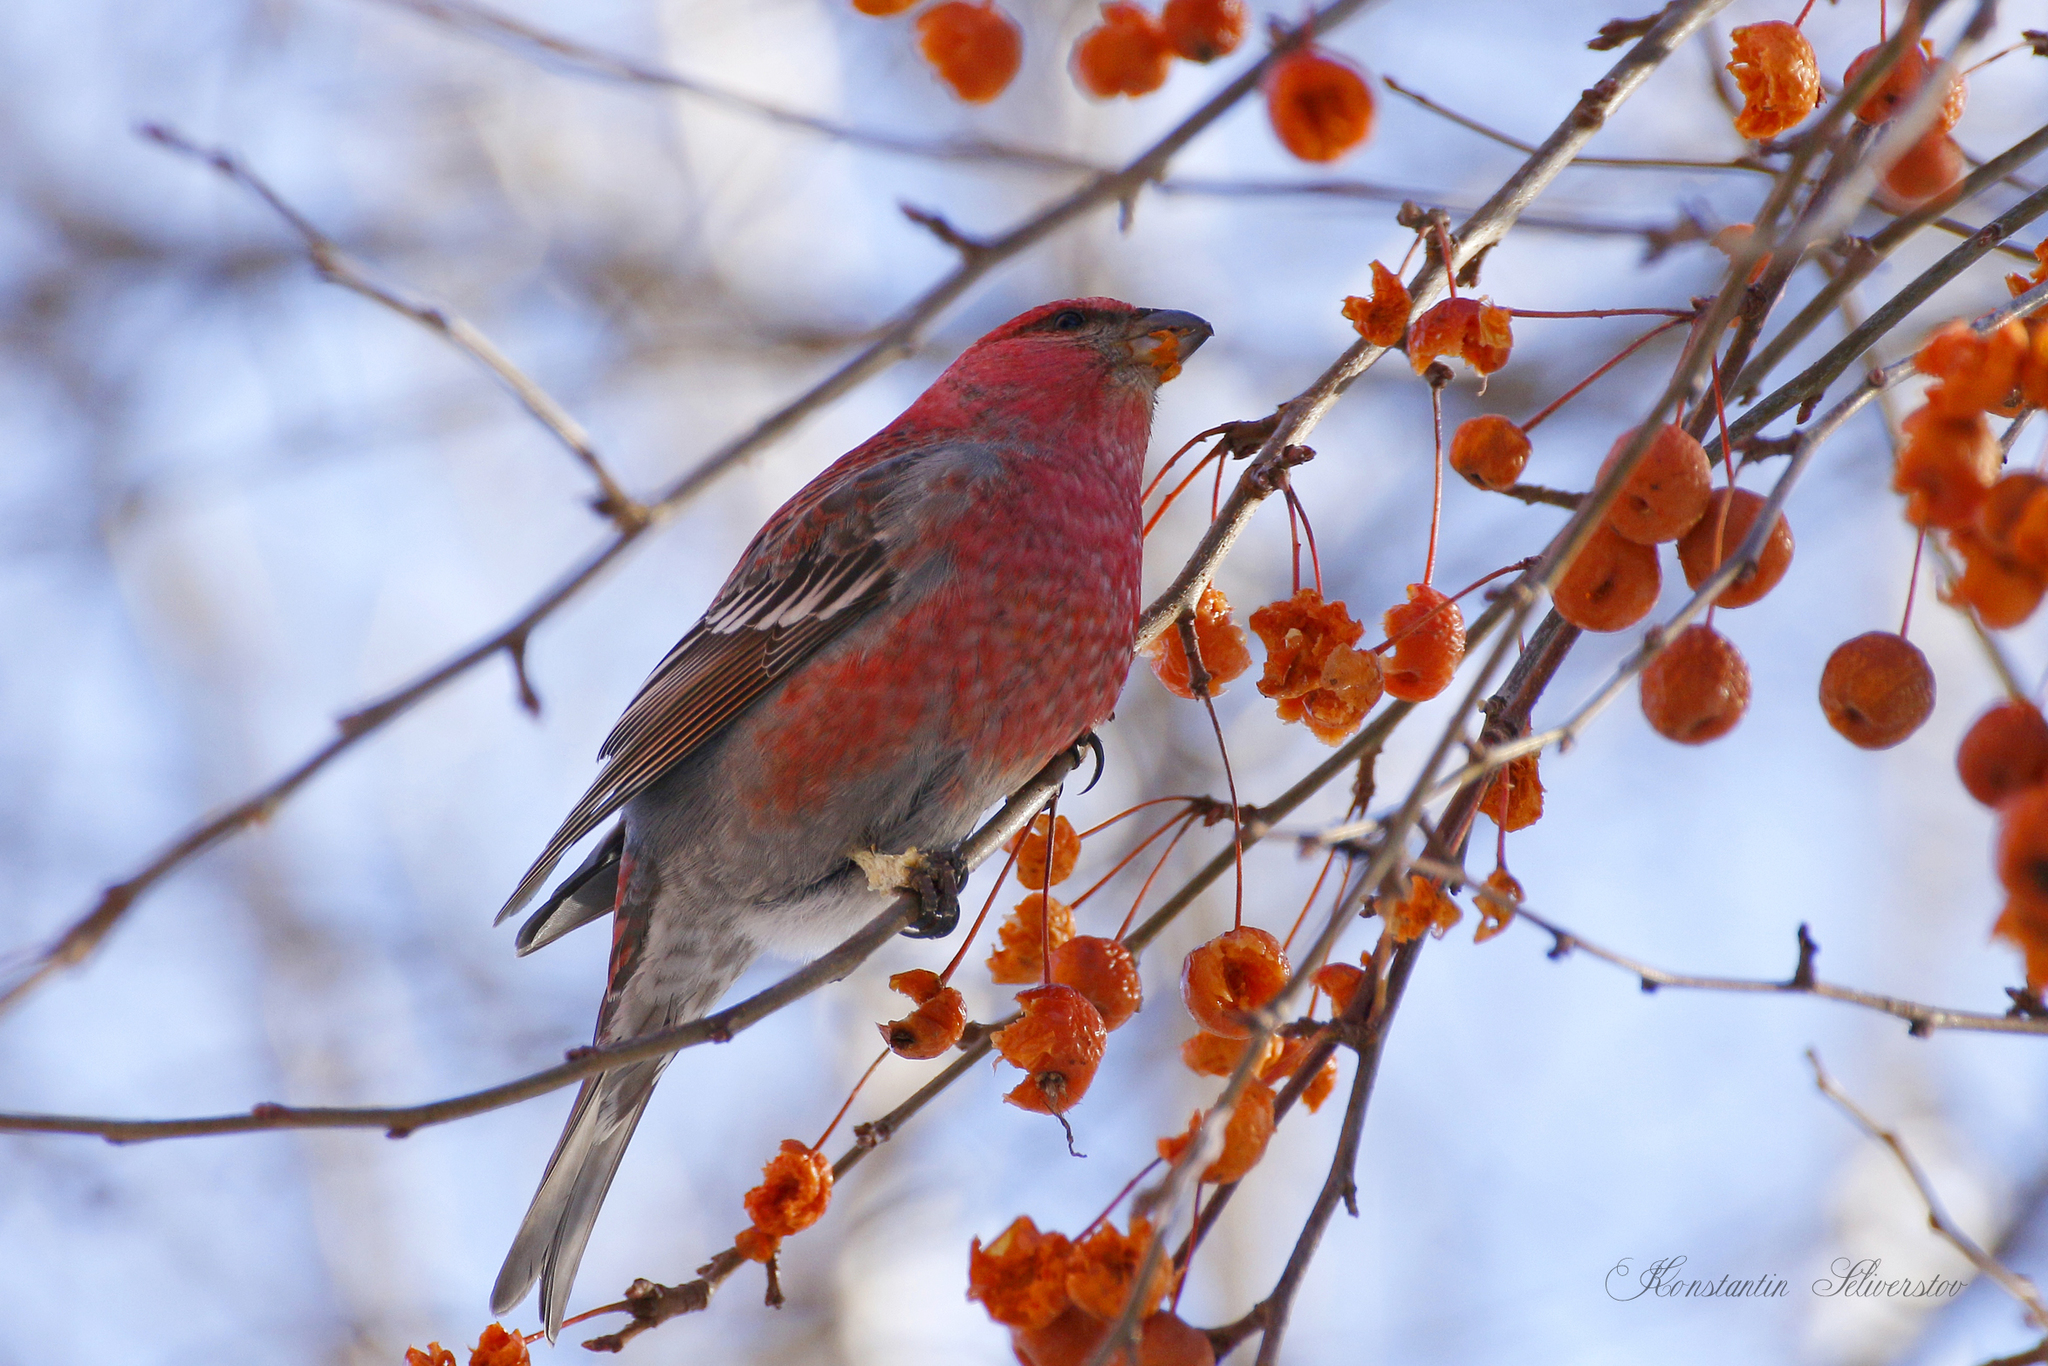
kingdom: Animalia
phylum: Chordata
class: Aves
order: Passeriformes
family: Fringillidae
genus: Pinicola
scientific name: Pinicola enucleator
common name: Pine grosbeak
